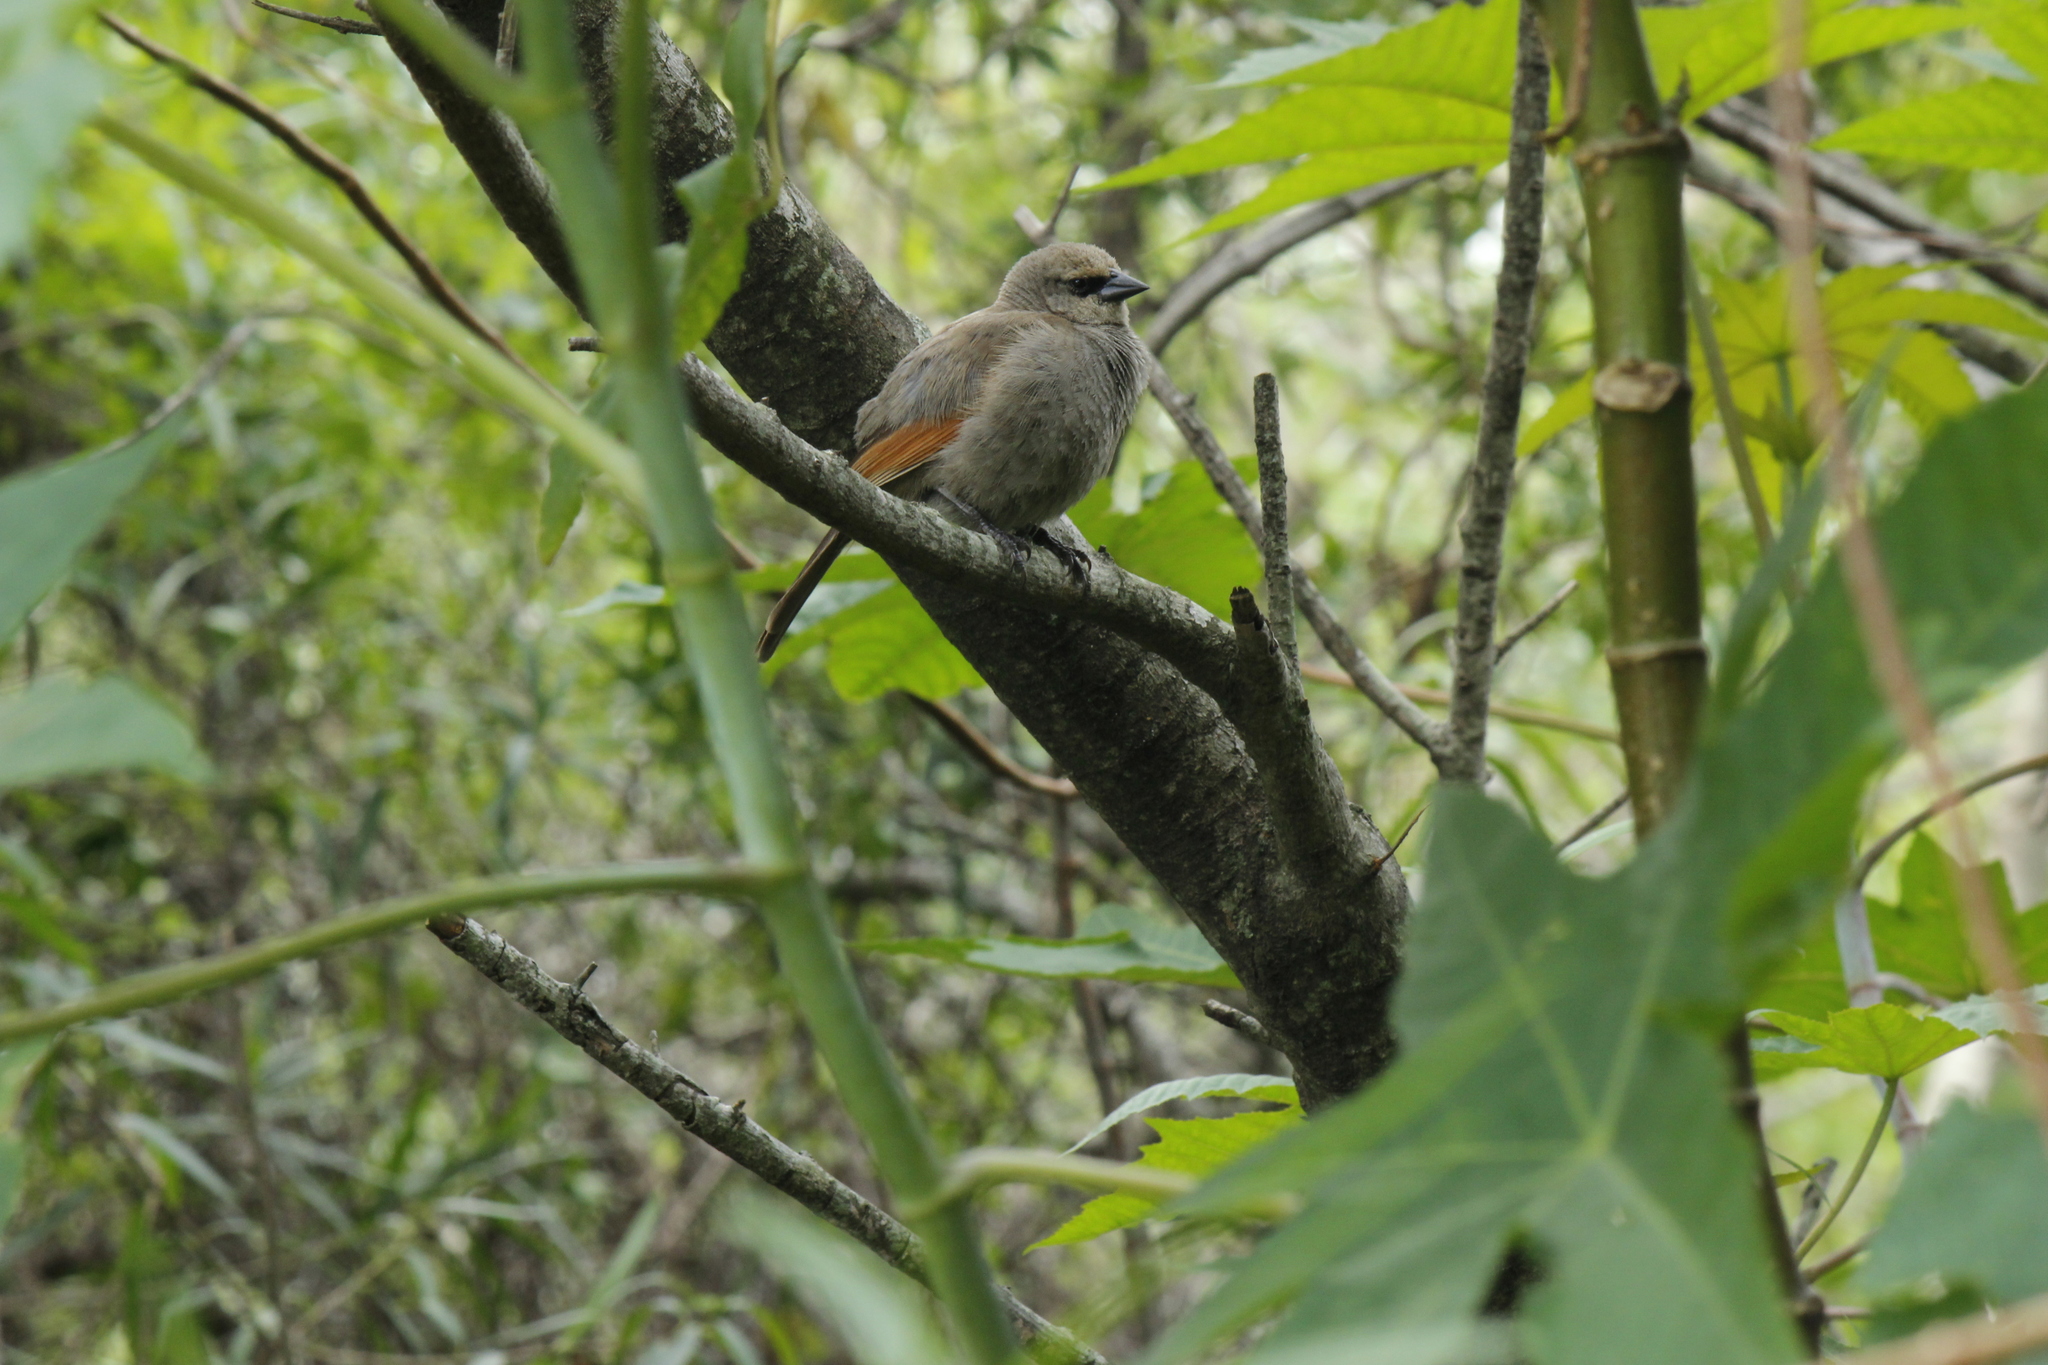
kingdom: Animalia
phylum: Chordata
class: Aves
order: Passeriformes
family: Icteridae
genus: Agelaioides
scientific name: Agelaioides badius
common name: Baywing
